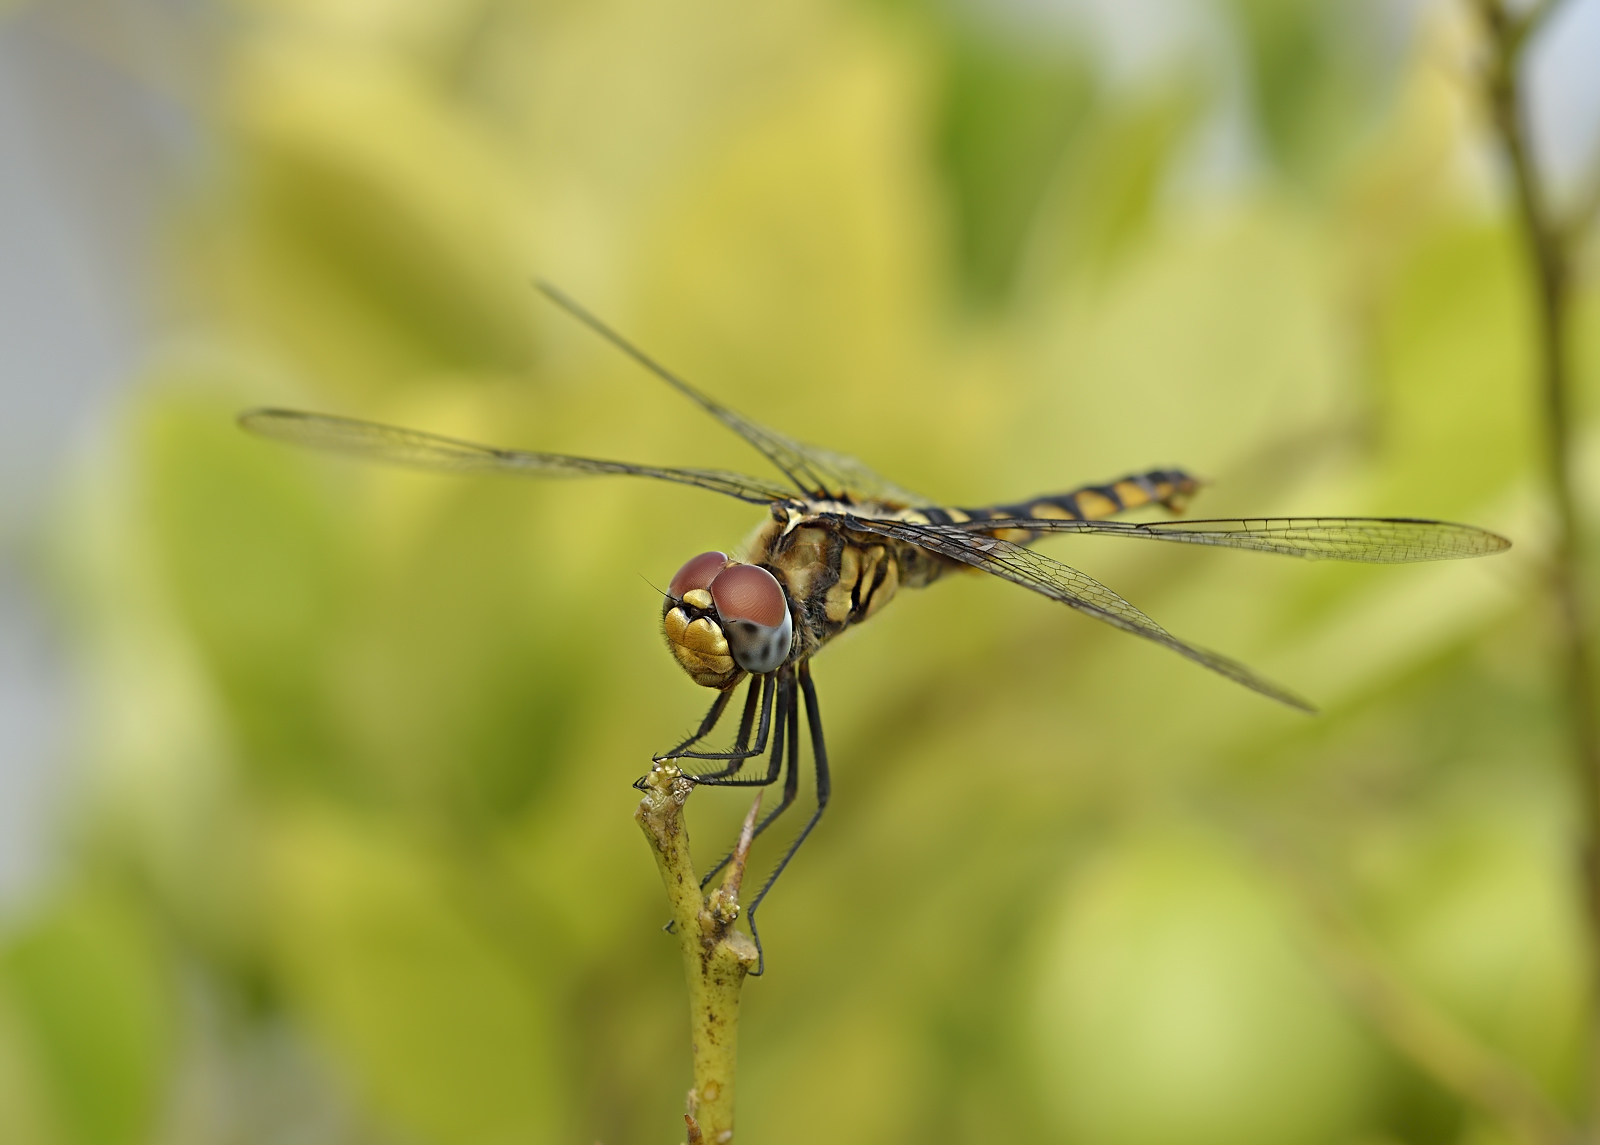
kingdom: Animalia
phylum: Arthropoda
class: Insecta
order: Odonata
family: Libellulidae
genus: Urothemis
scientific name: Urothemis signata
